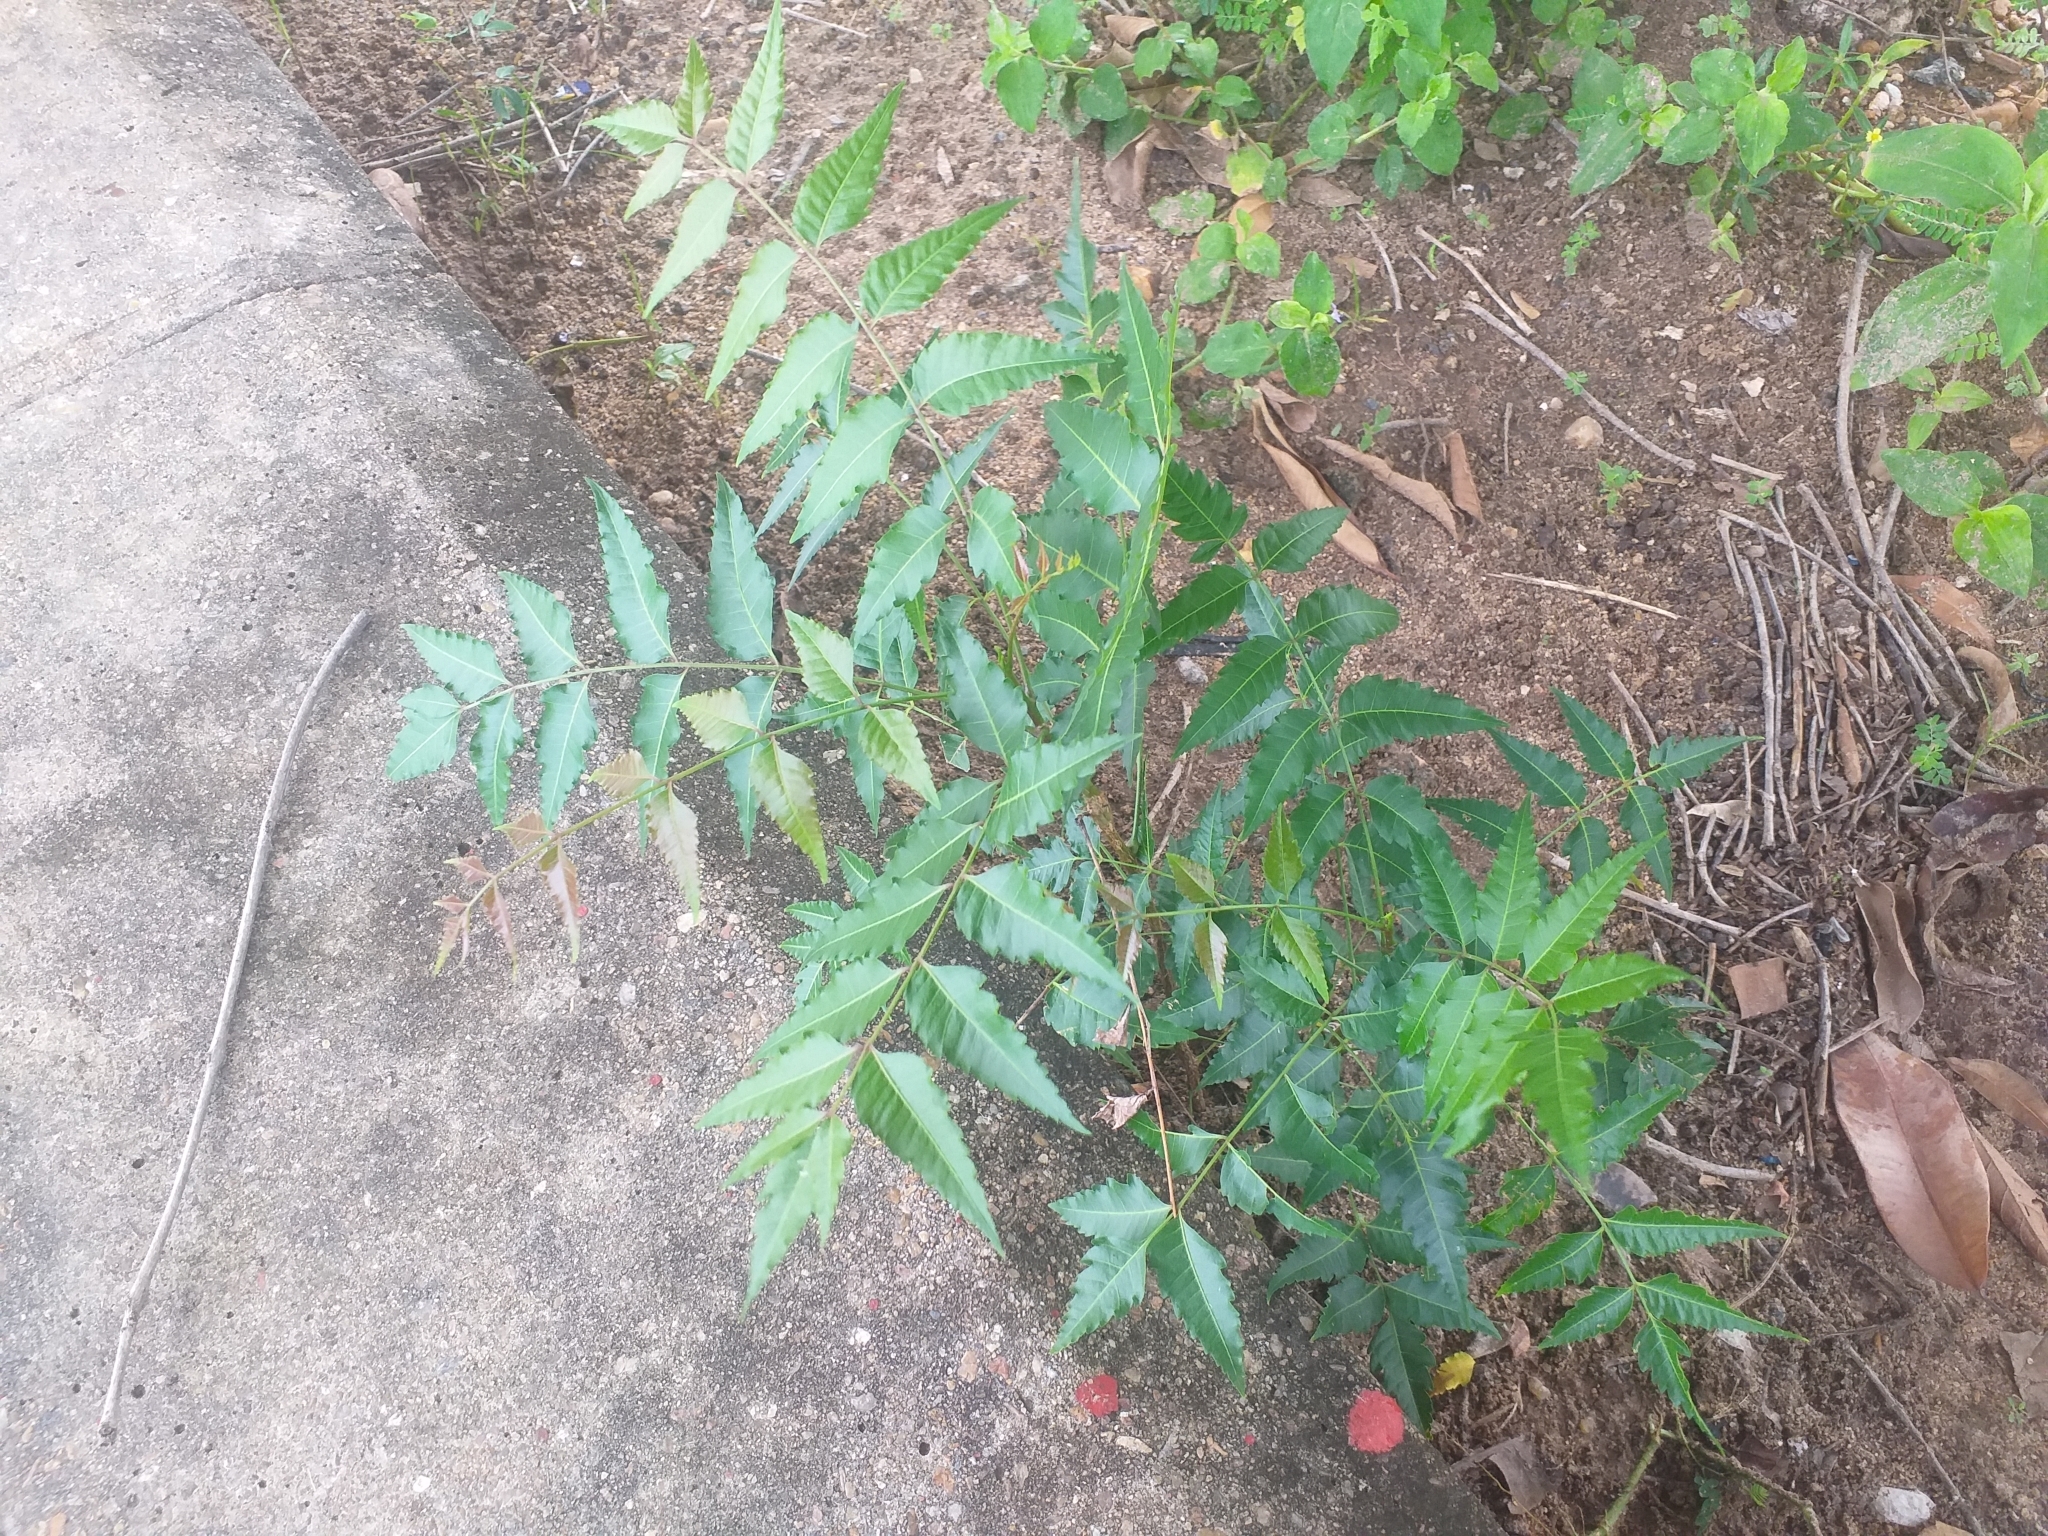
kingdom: Plantae
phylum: Tracheophyta
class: Magnoliopsida
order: Sapindales
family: Meliaceae
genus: Azadirachta
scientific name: Azadirachta indica
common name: Neem
